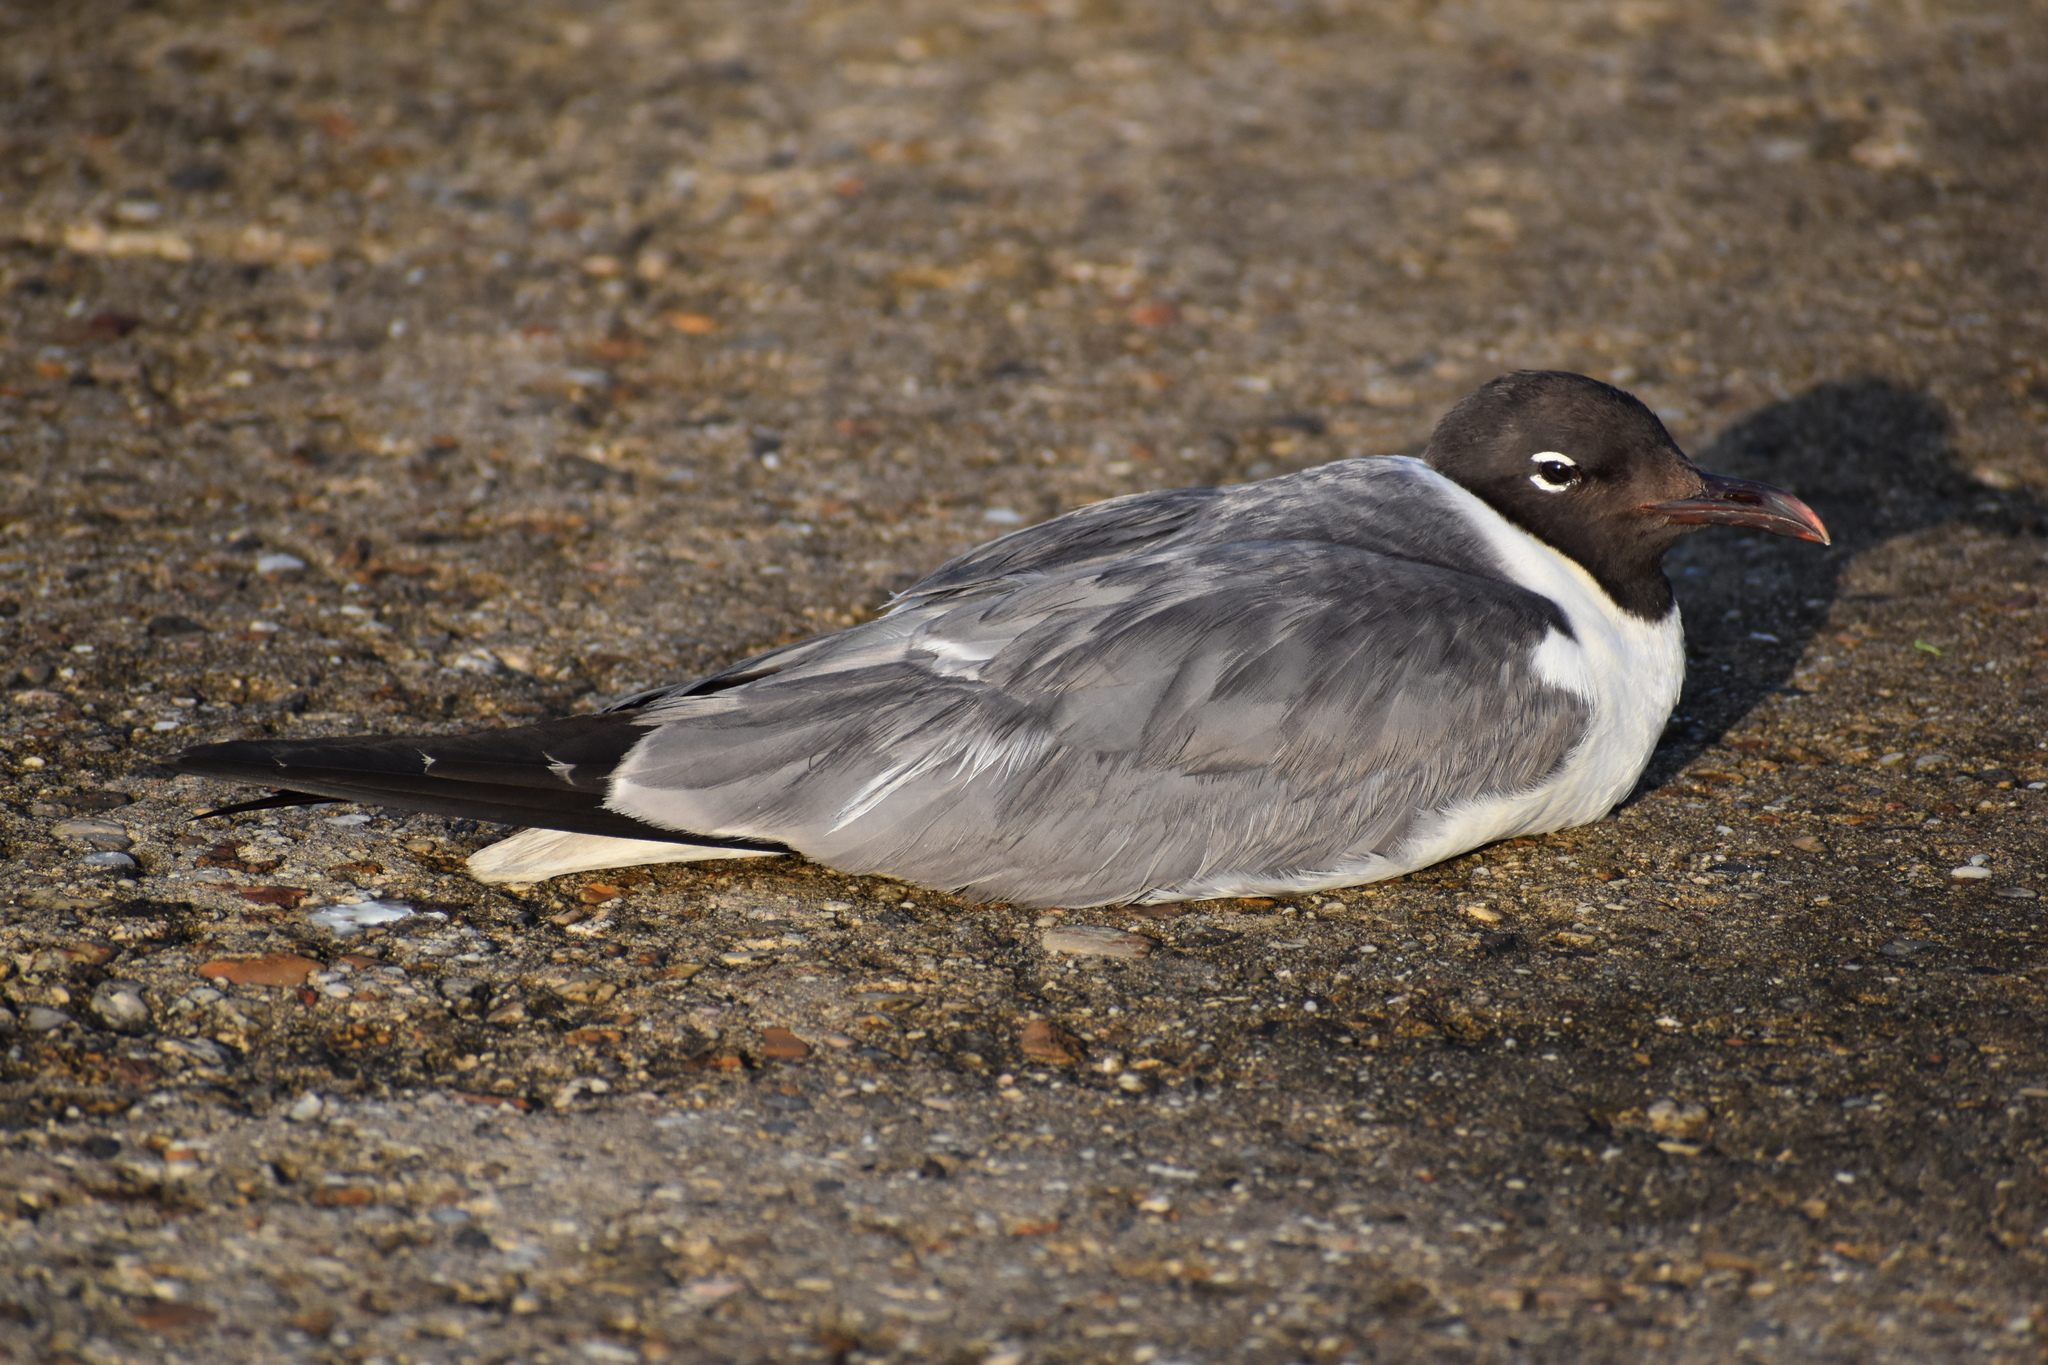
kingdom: Animalia
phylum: Chordata
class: Aves
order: Charadriiformes
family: Laridae
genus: Leucophaeus
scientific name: Leucophaeus atricilla
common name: Laughing gull
